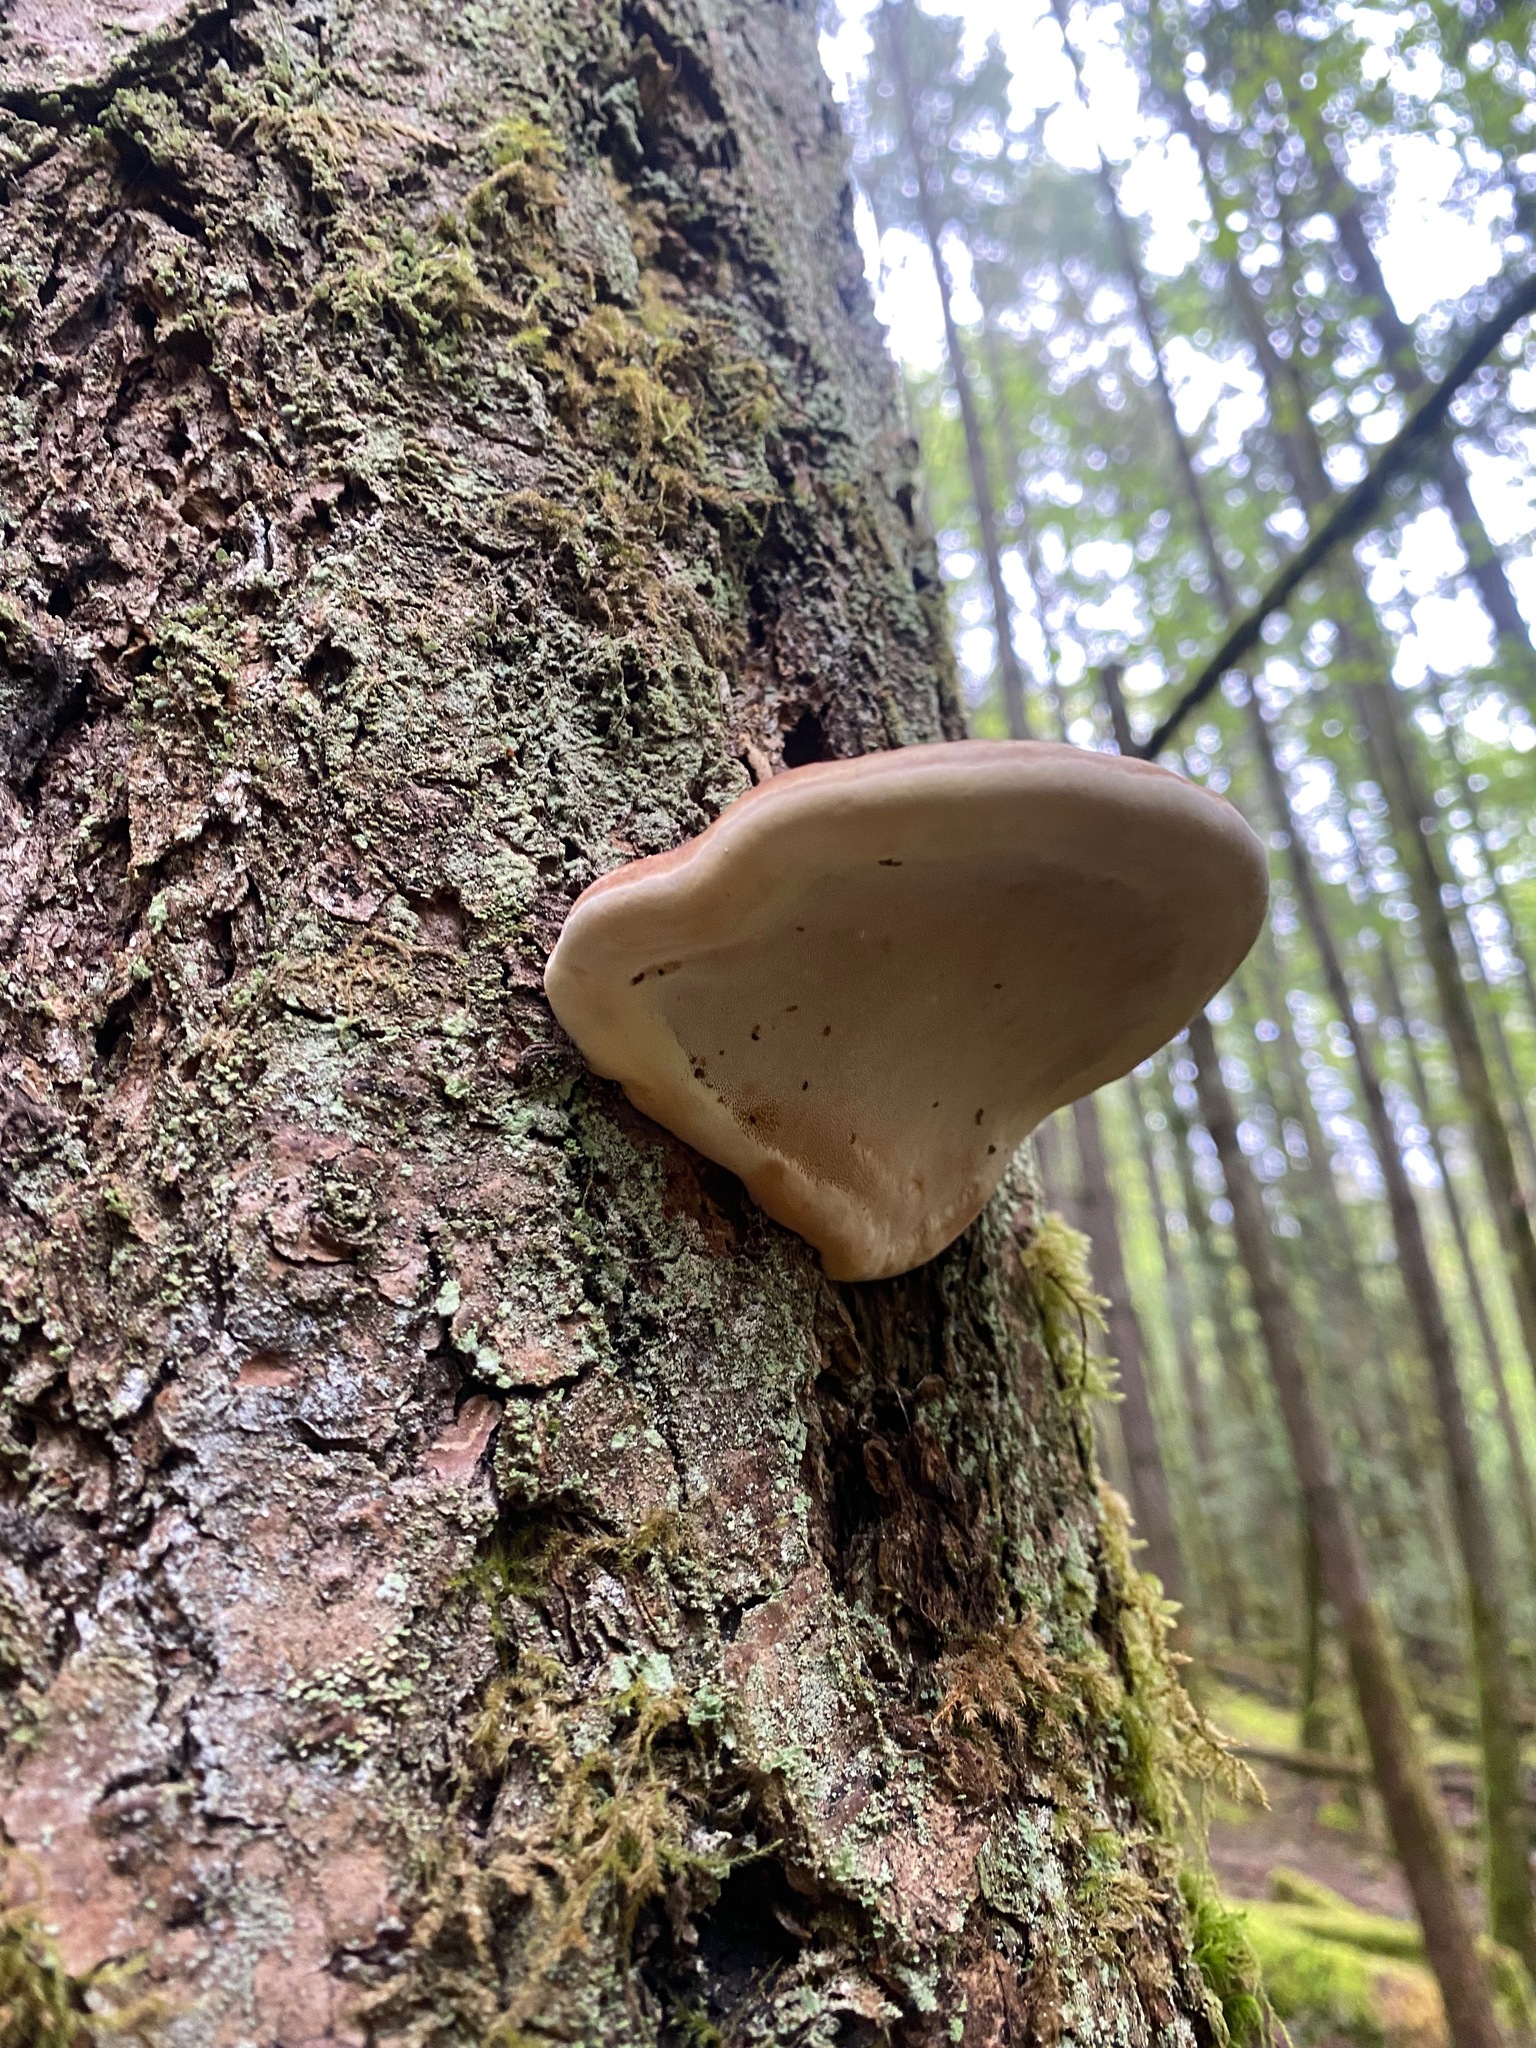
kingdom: Fungi
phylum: Basidiomycota
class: Agaricomycetes
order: Polyporales
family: Fomitopsidaceae
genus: Fomitopsis
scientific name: Fomitopsis mounceae
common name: Northern red belt
